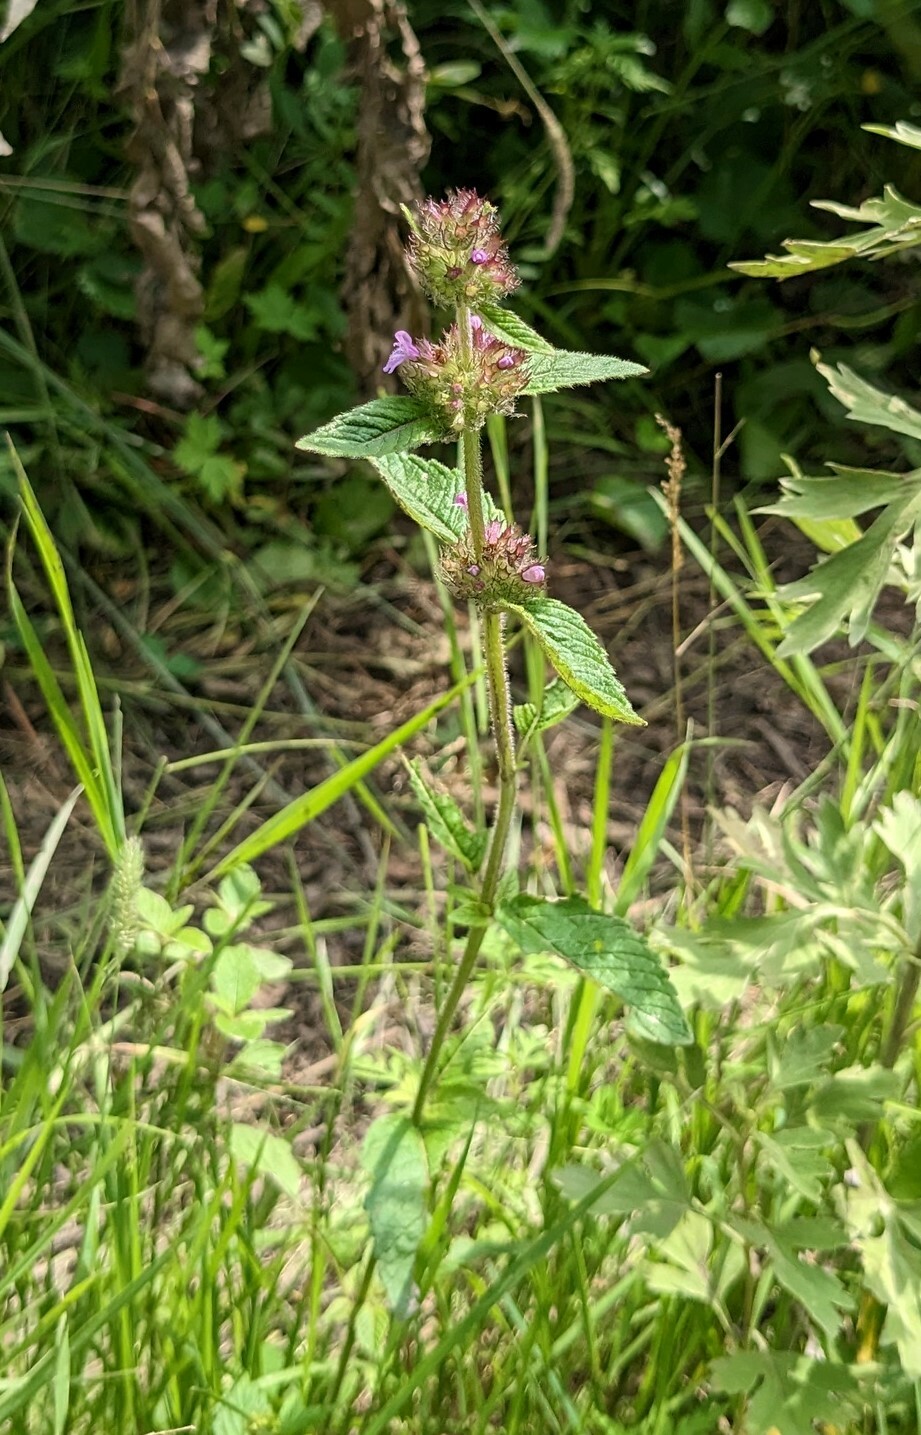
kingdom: Plantae
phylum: Tracheophyta
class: Magnoliopsida
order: Lamiales
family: Lamiaceae
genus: Clinopodium
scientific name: Clinopodium chinense
